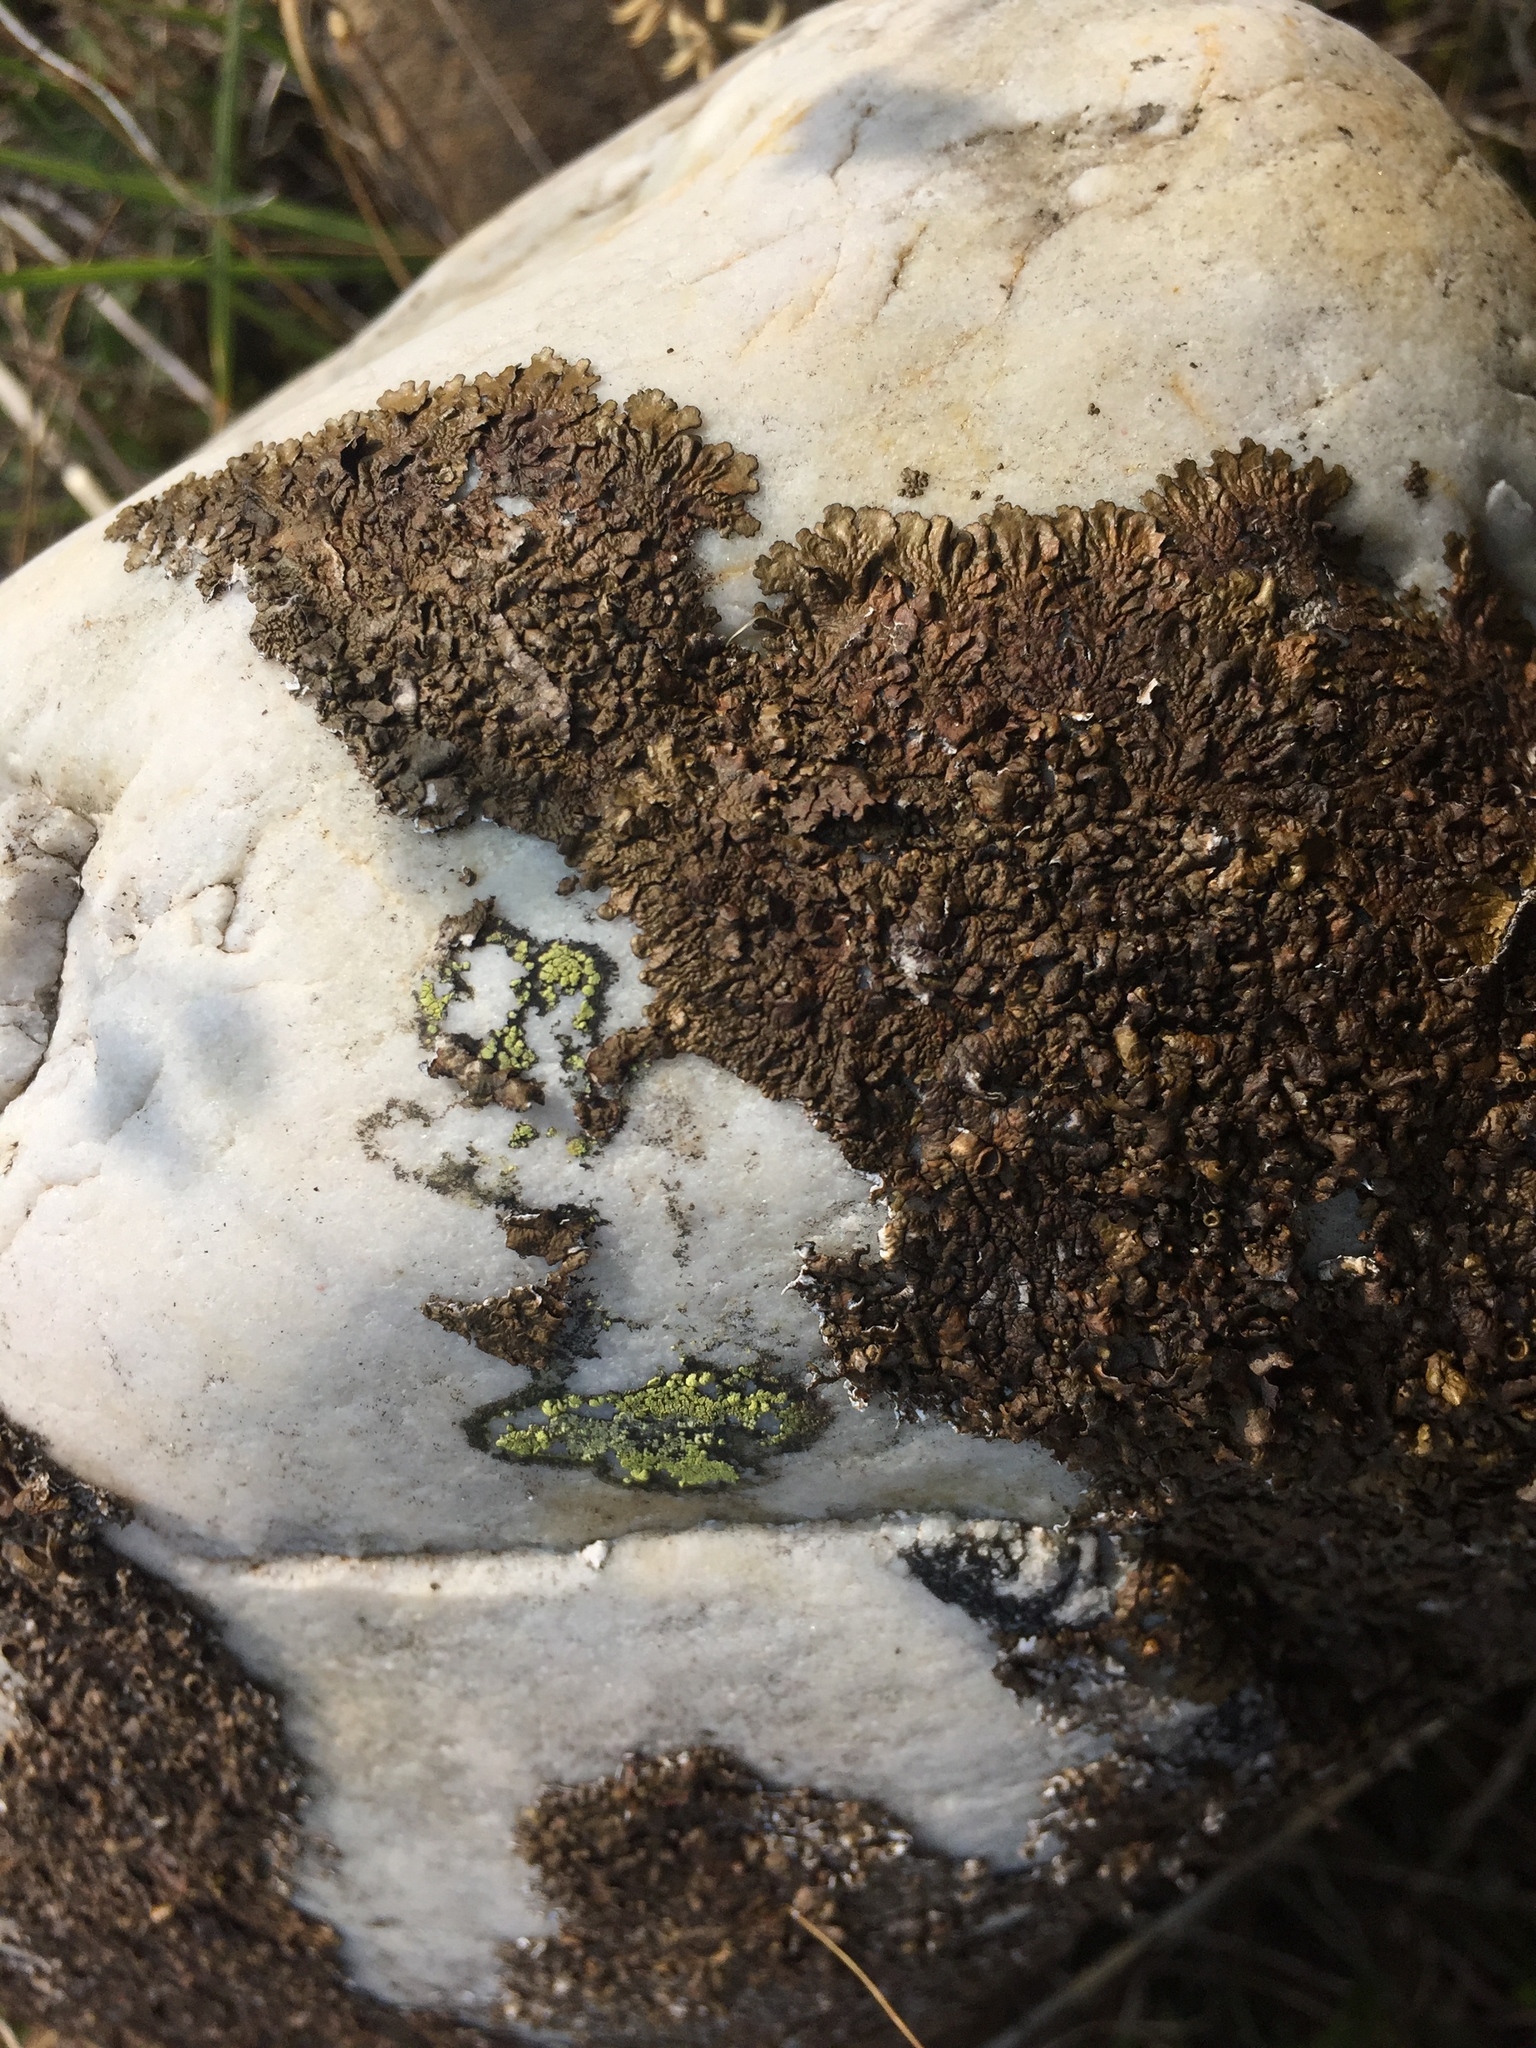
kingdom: Fungi
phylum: Ascomycota
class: Lecanoromycetes
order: Lecanorales
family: Parmeliaceae
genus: Xanthoparmelia
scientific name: Xanthoparmelia pulla
